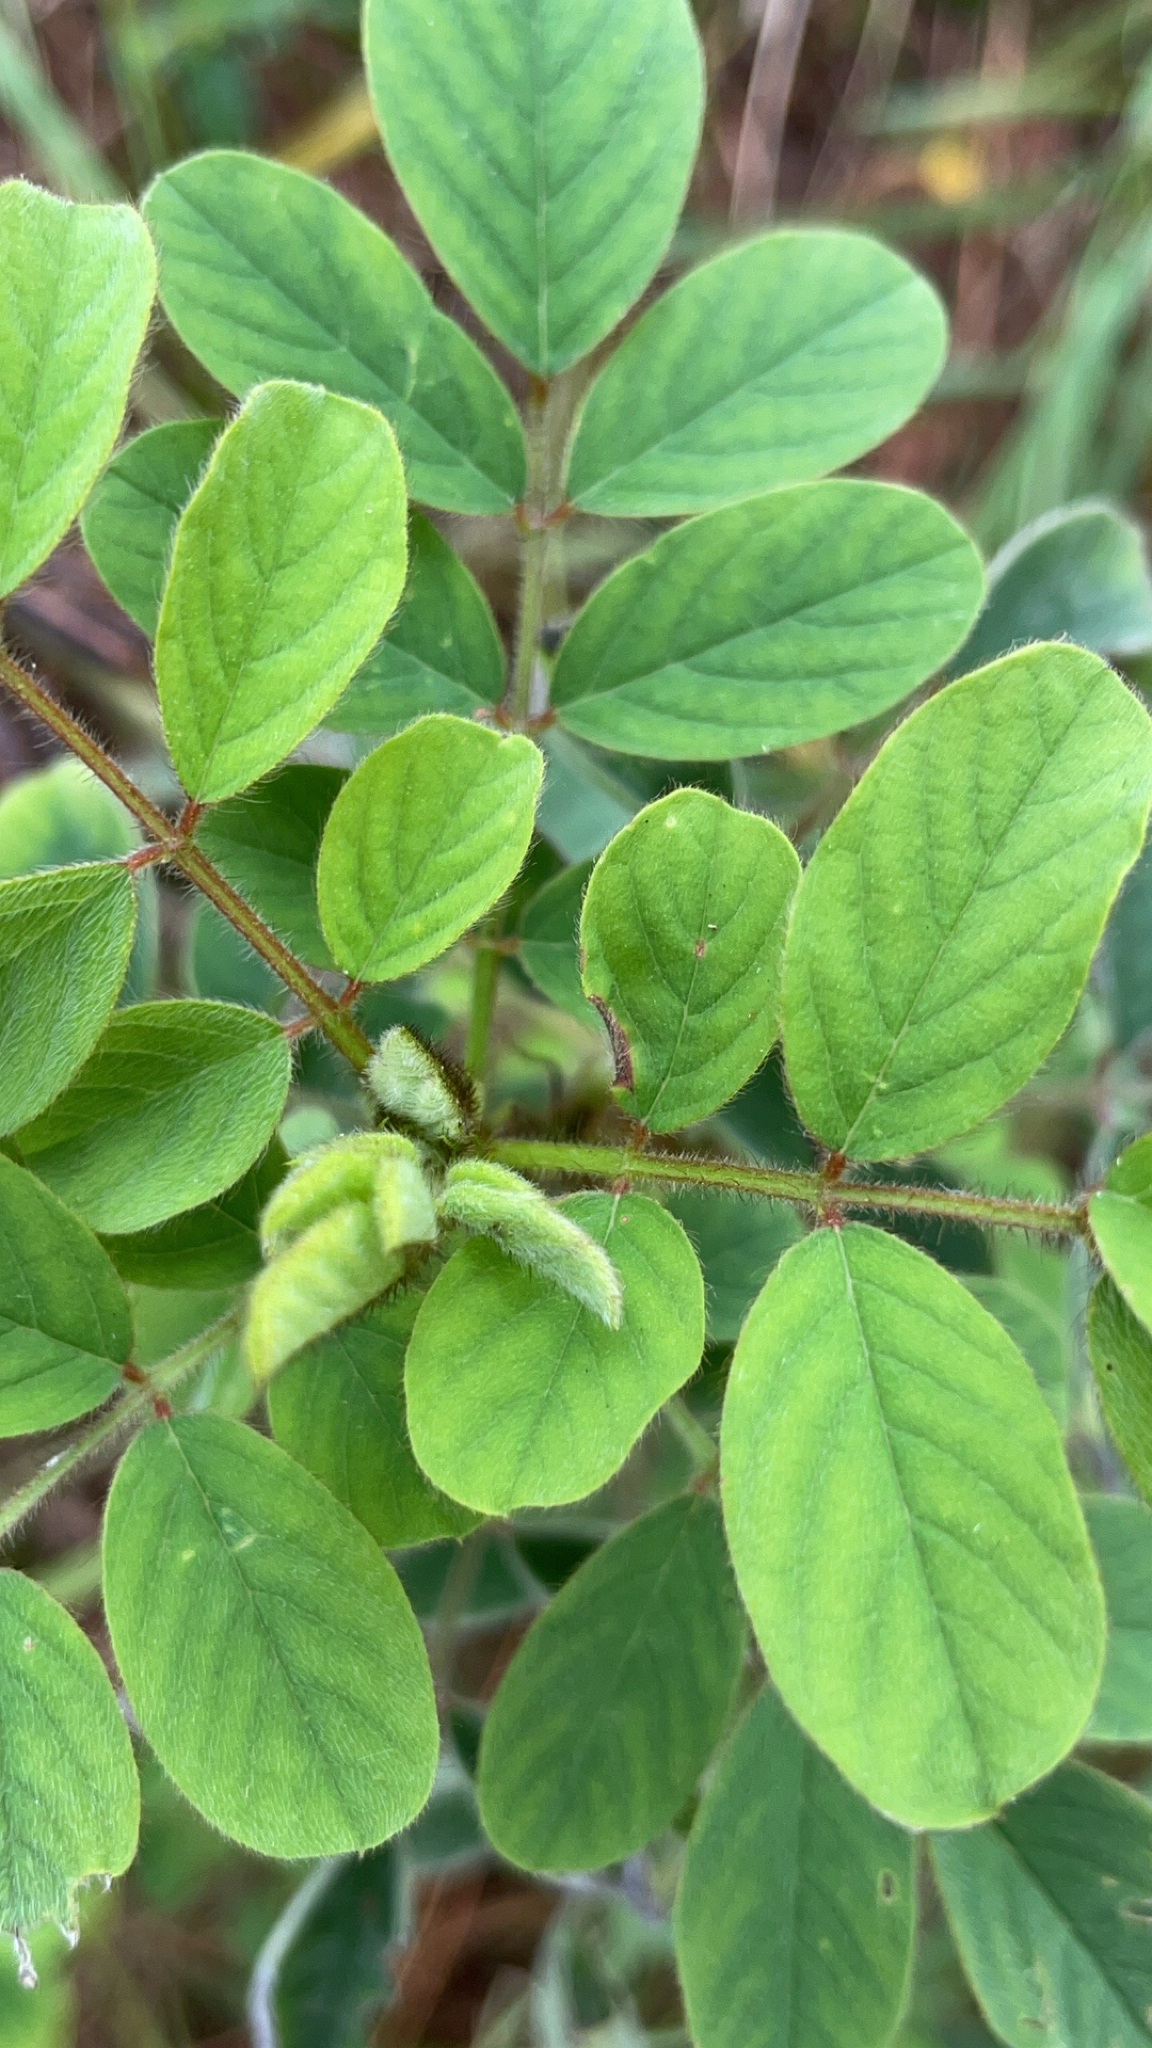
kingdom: Plantae
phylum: Tracheophyta
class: Magnoliopsida
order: Fabales
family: Fabaceae
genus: Indigofera
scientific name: Indigofera hirsuta
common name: Hairy indigo
